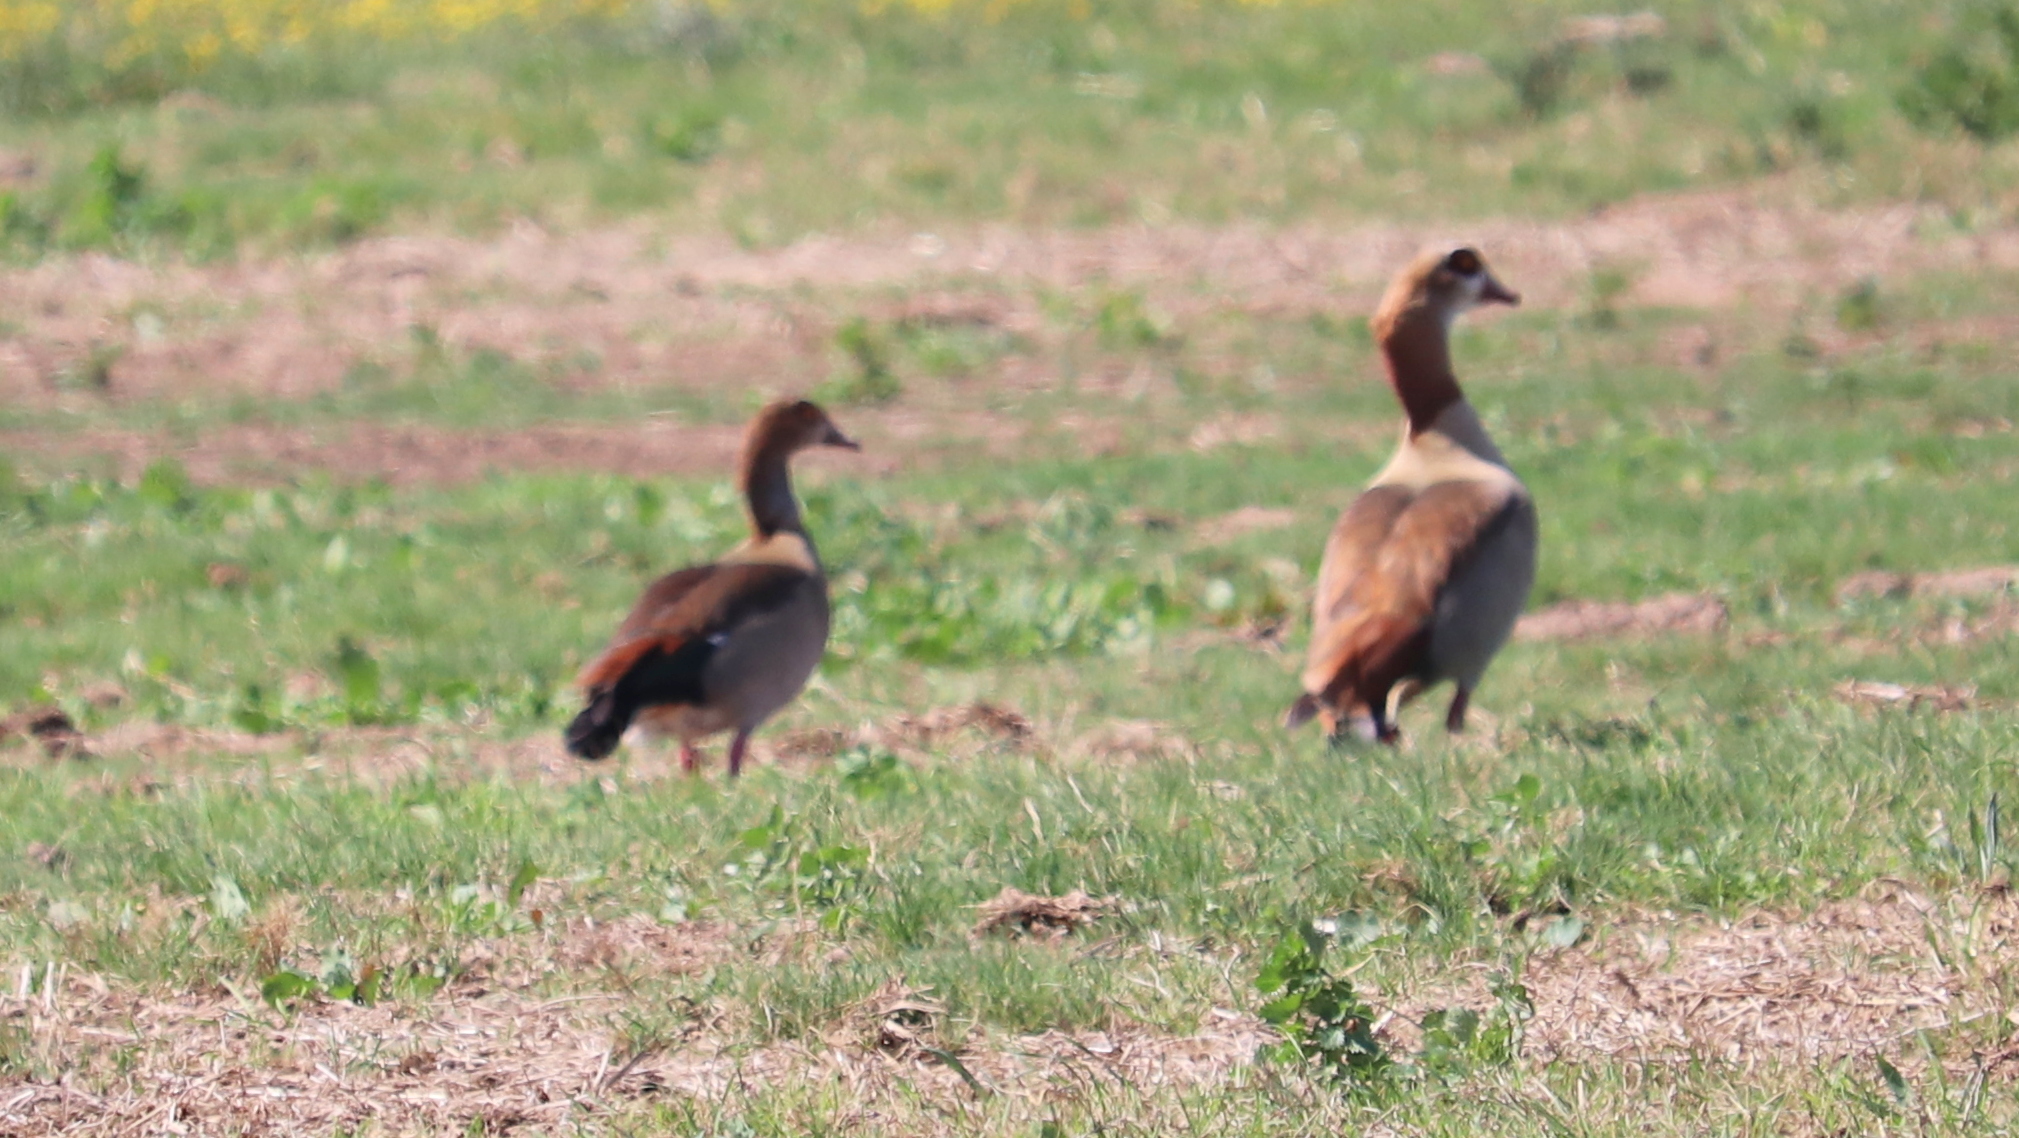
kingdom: Animalia
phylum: Chordata
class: Aves
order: Anseriformes
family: Anatidae
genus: Alopochen
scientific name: Alopochen aegyptiaca
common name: Egyptian goose
